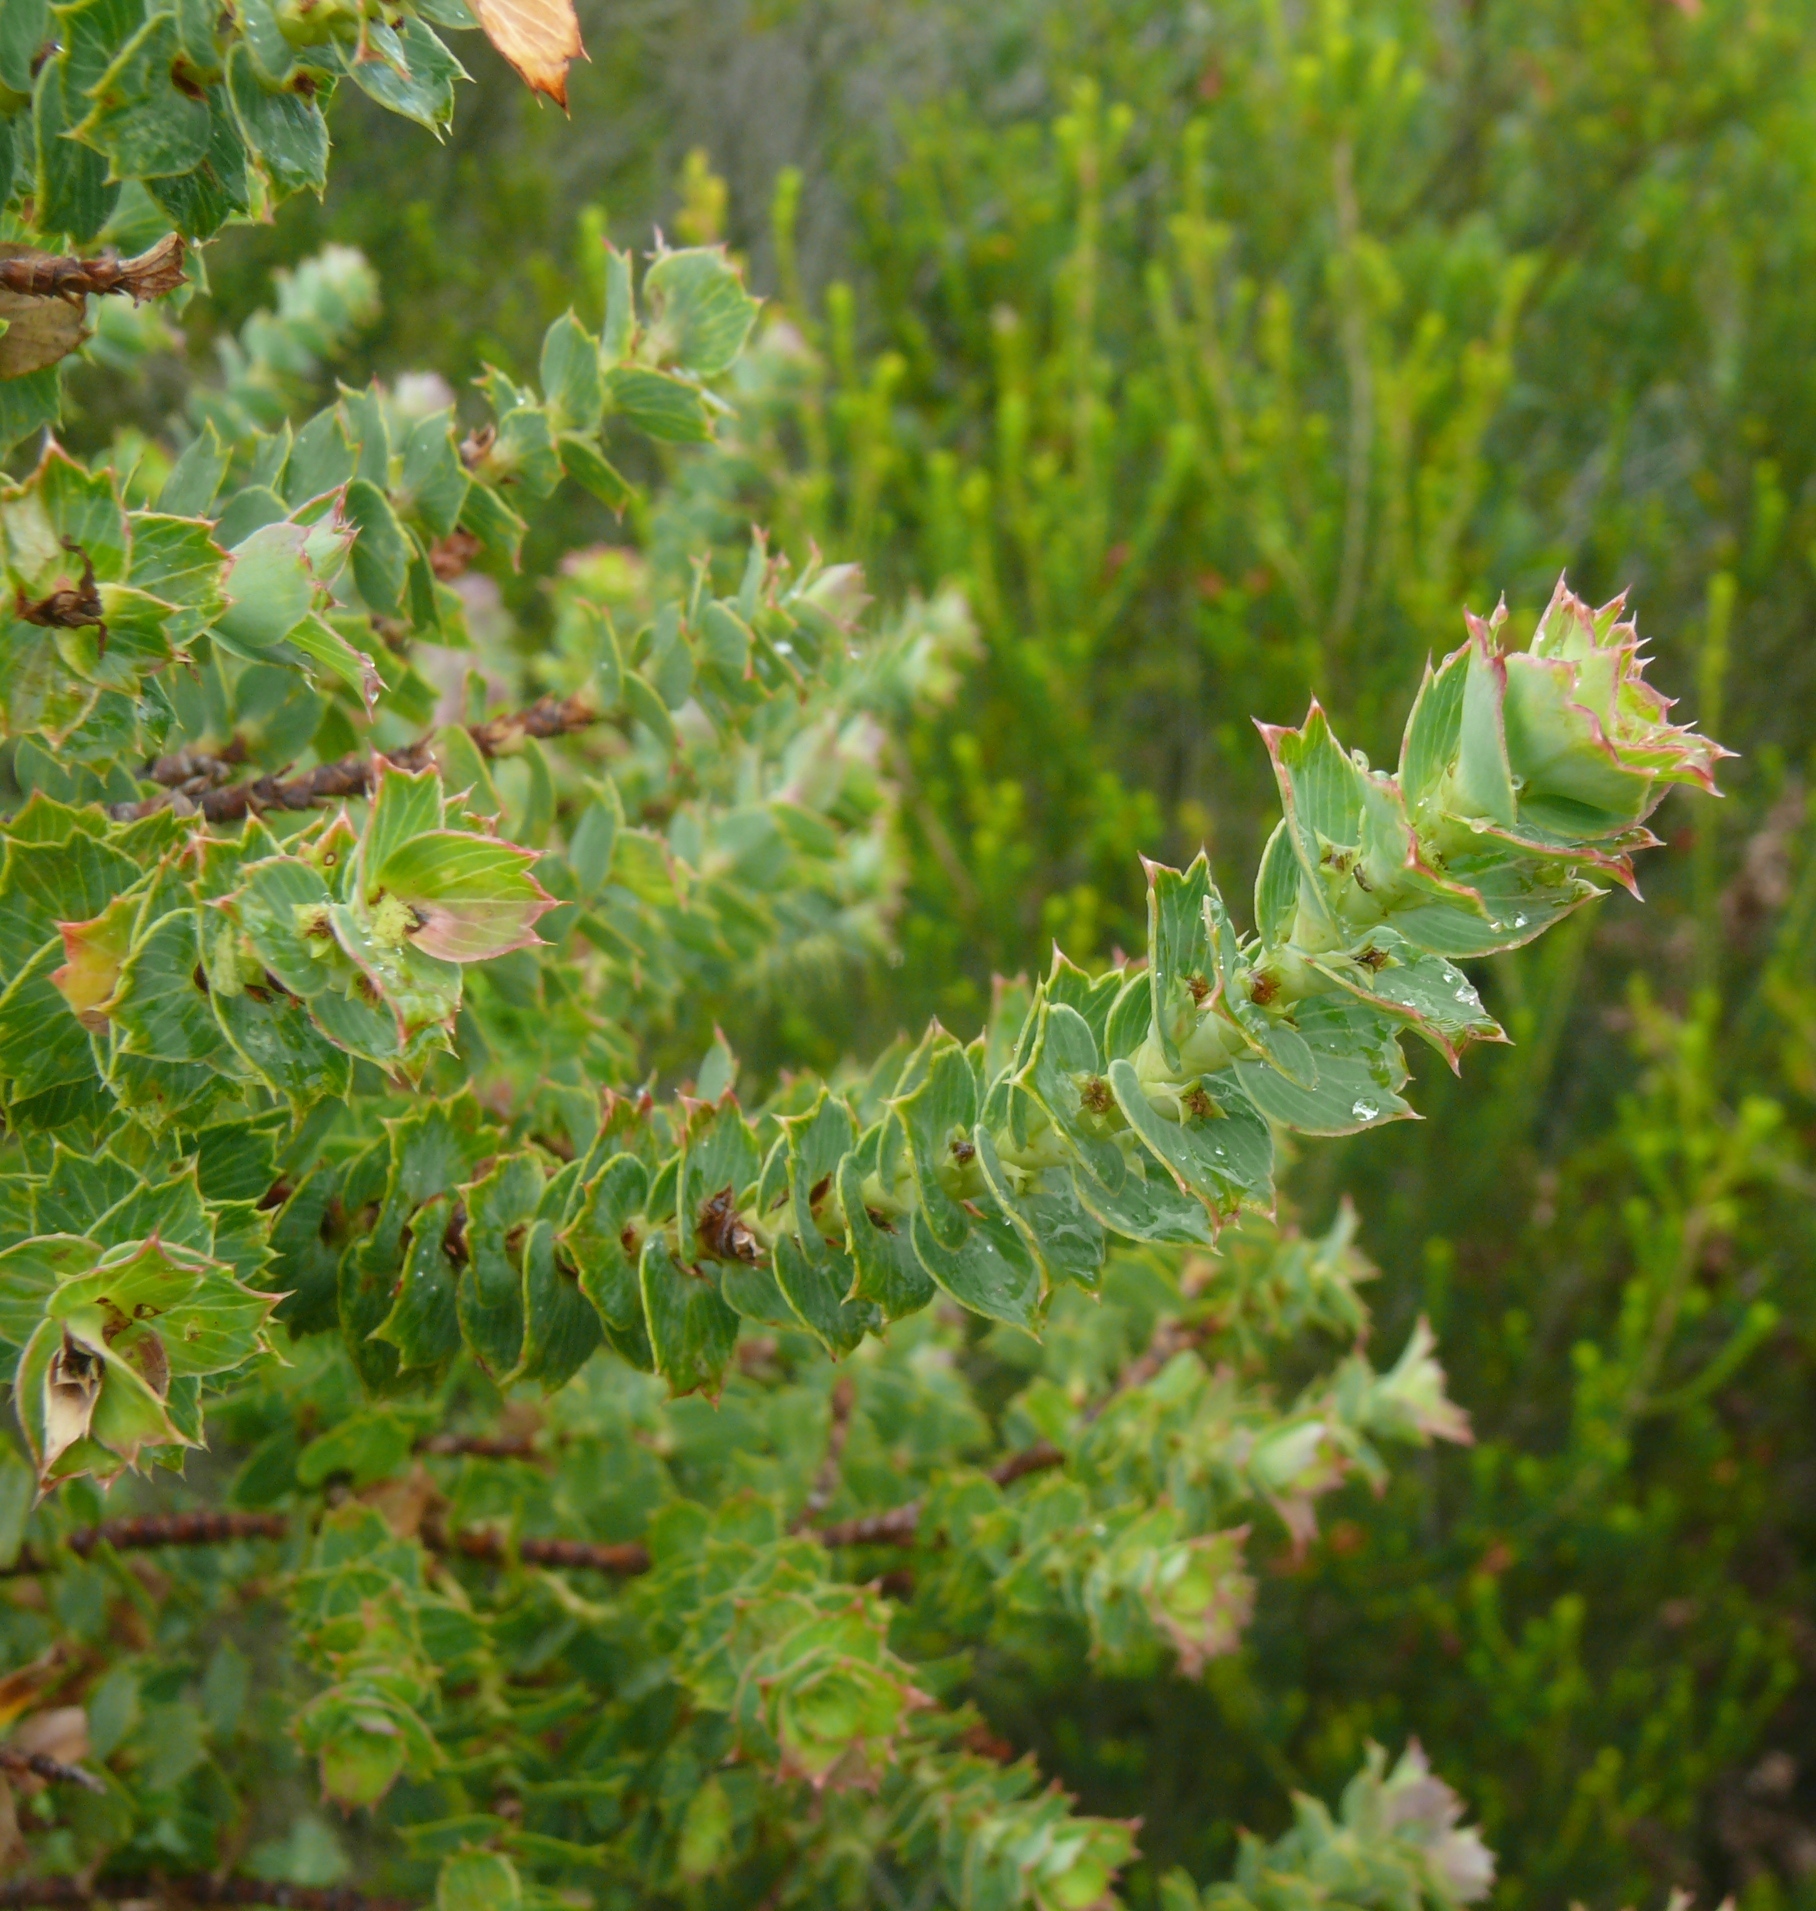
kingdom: Plantae
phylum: Tracheophyta
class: Magnoliopsida
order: Rosales
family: Rosaceae
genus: Cliffortia
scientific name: Cliffortia ilicifolia
